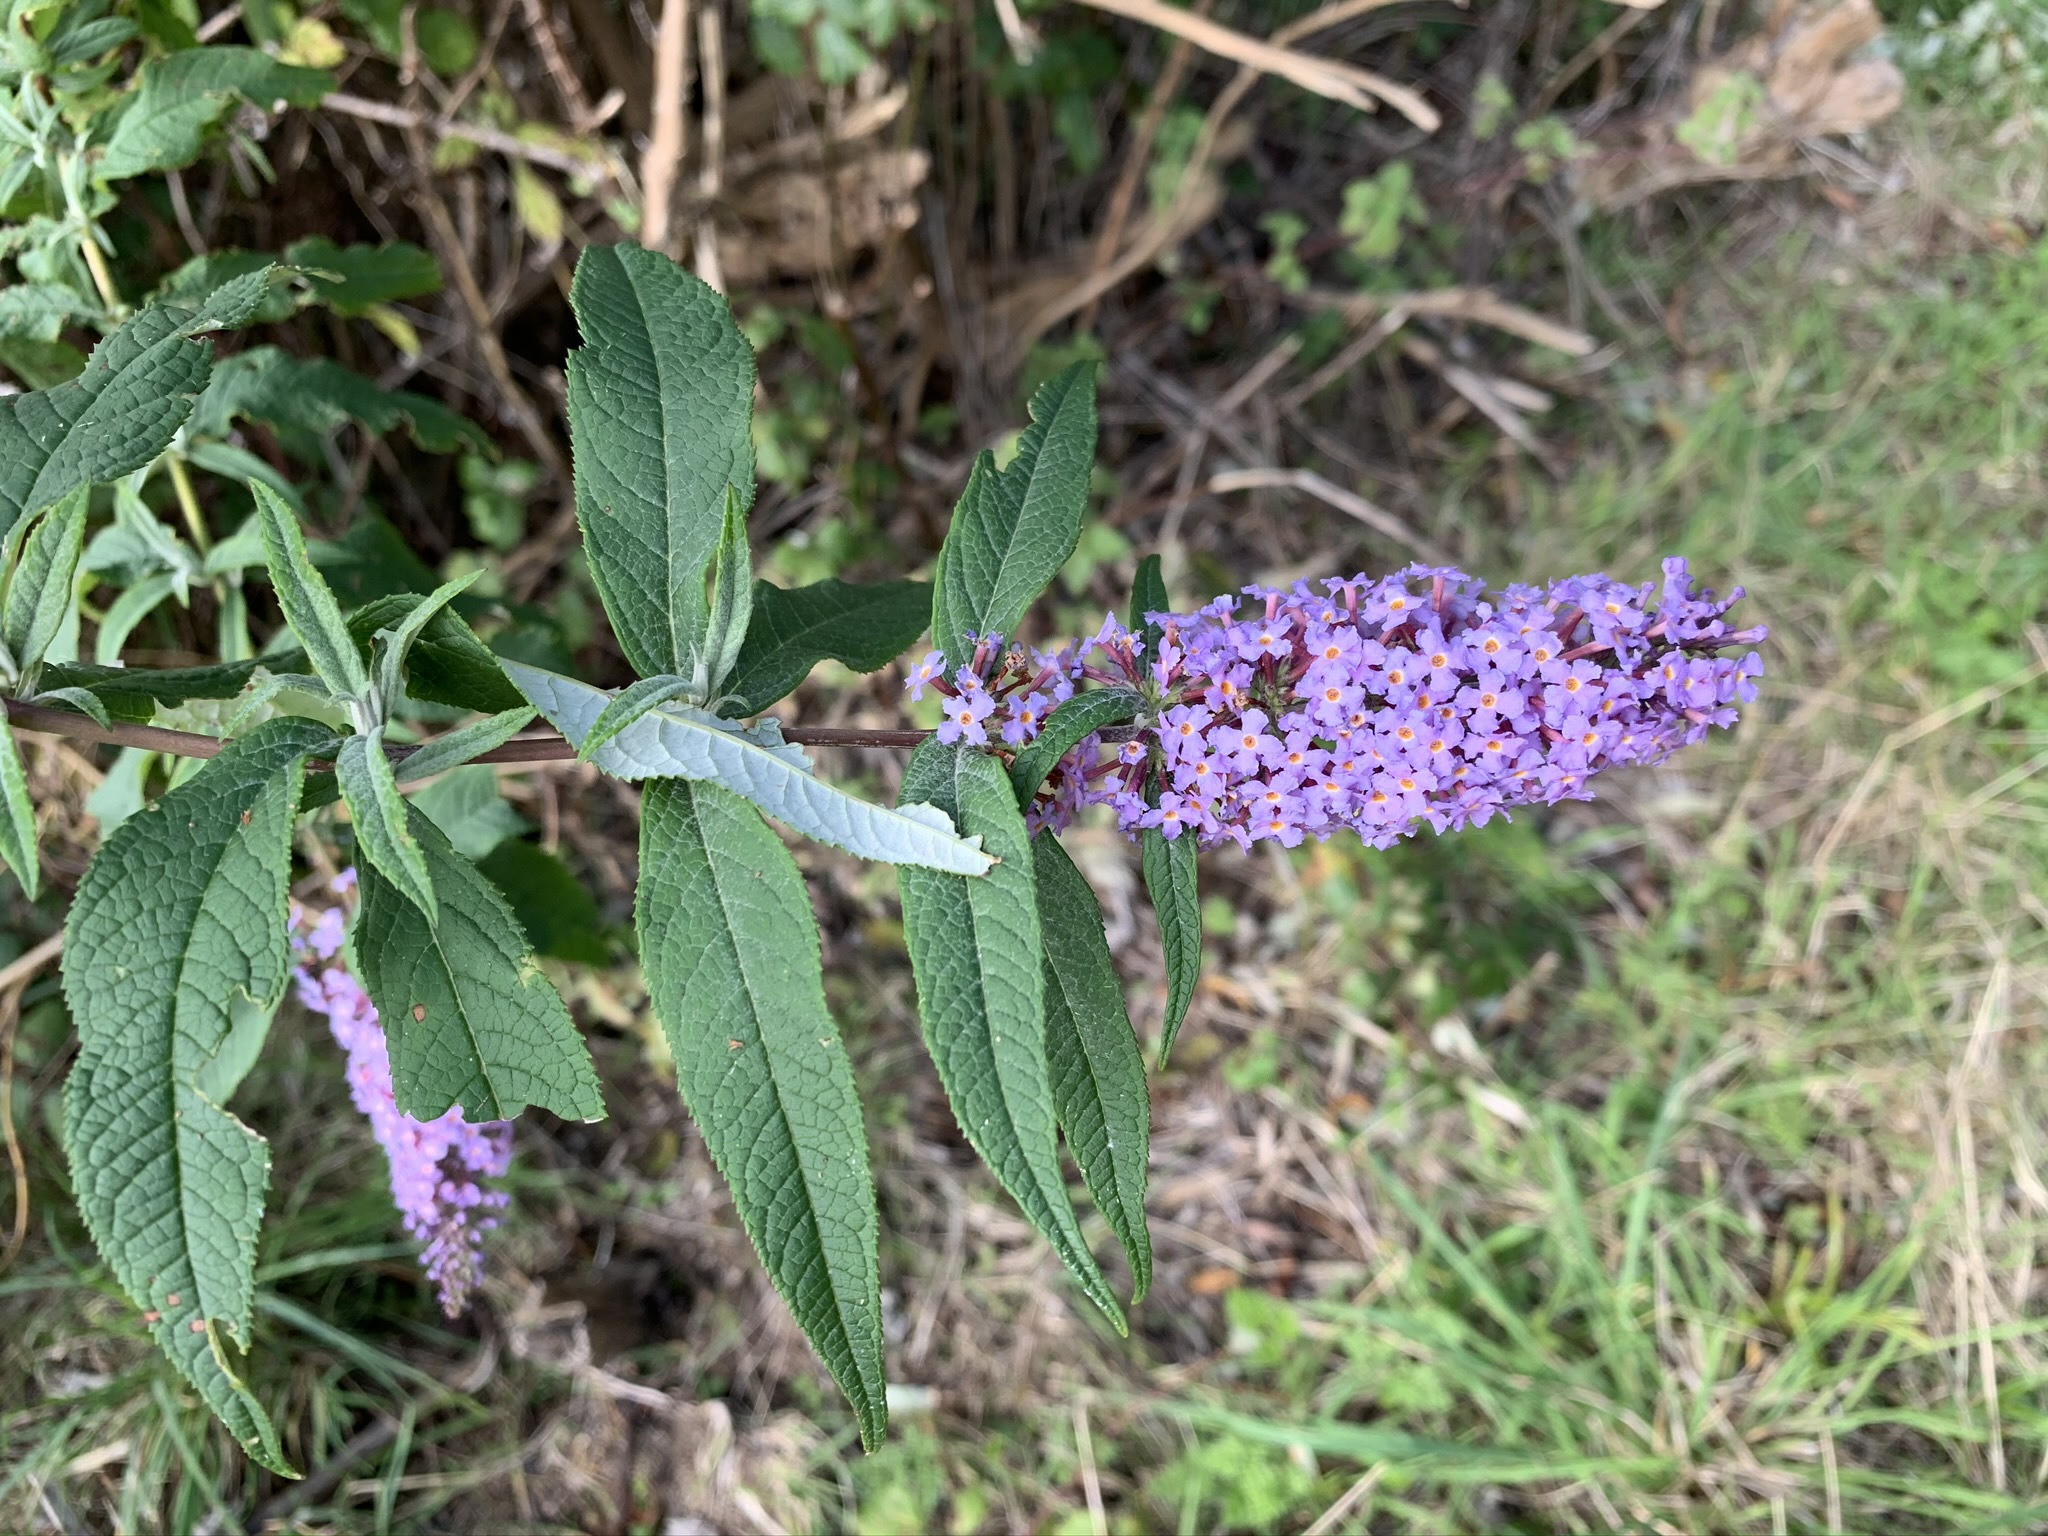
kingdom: Plantae
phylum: Tracheophyta
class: Magnoliopsida
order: Lamiales
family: Scrophulariaceae
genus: Buddleja
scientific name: Buddleja davidii
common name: Butterfly-bush
